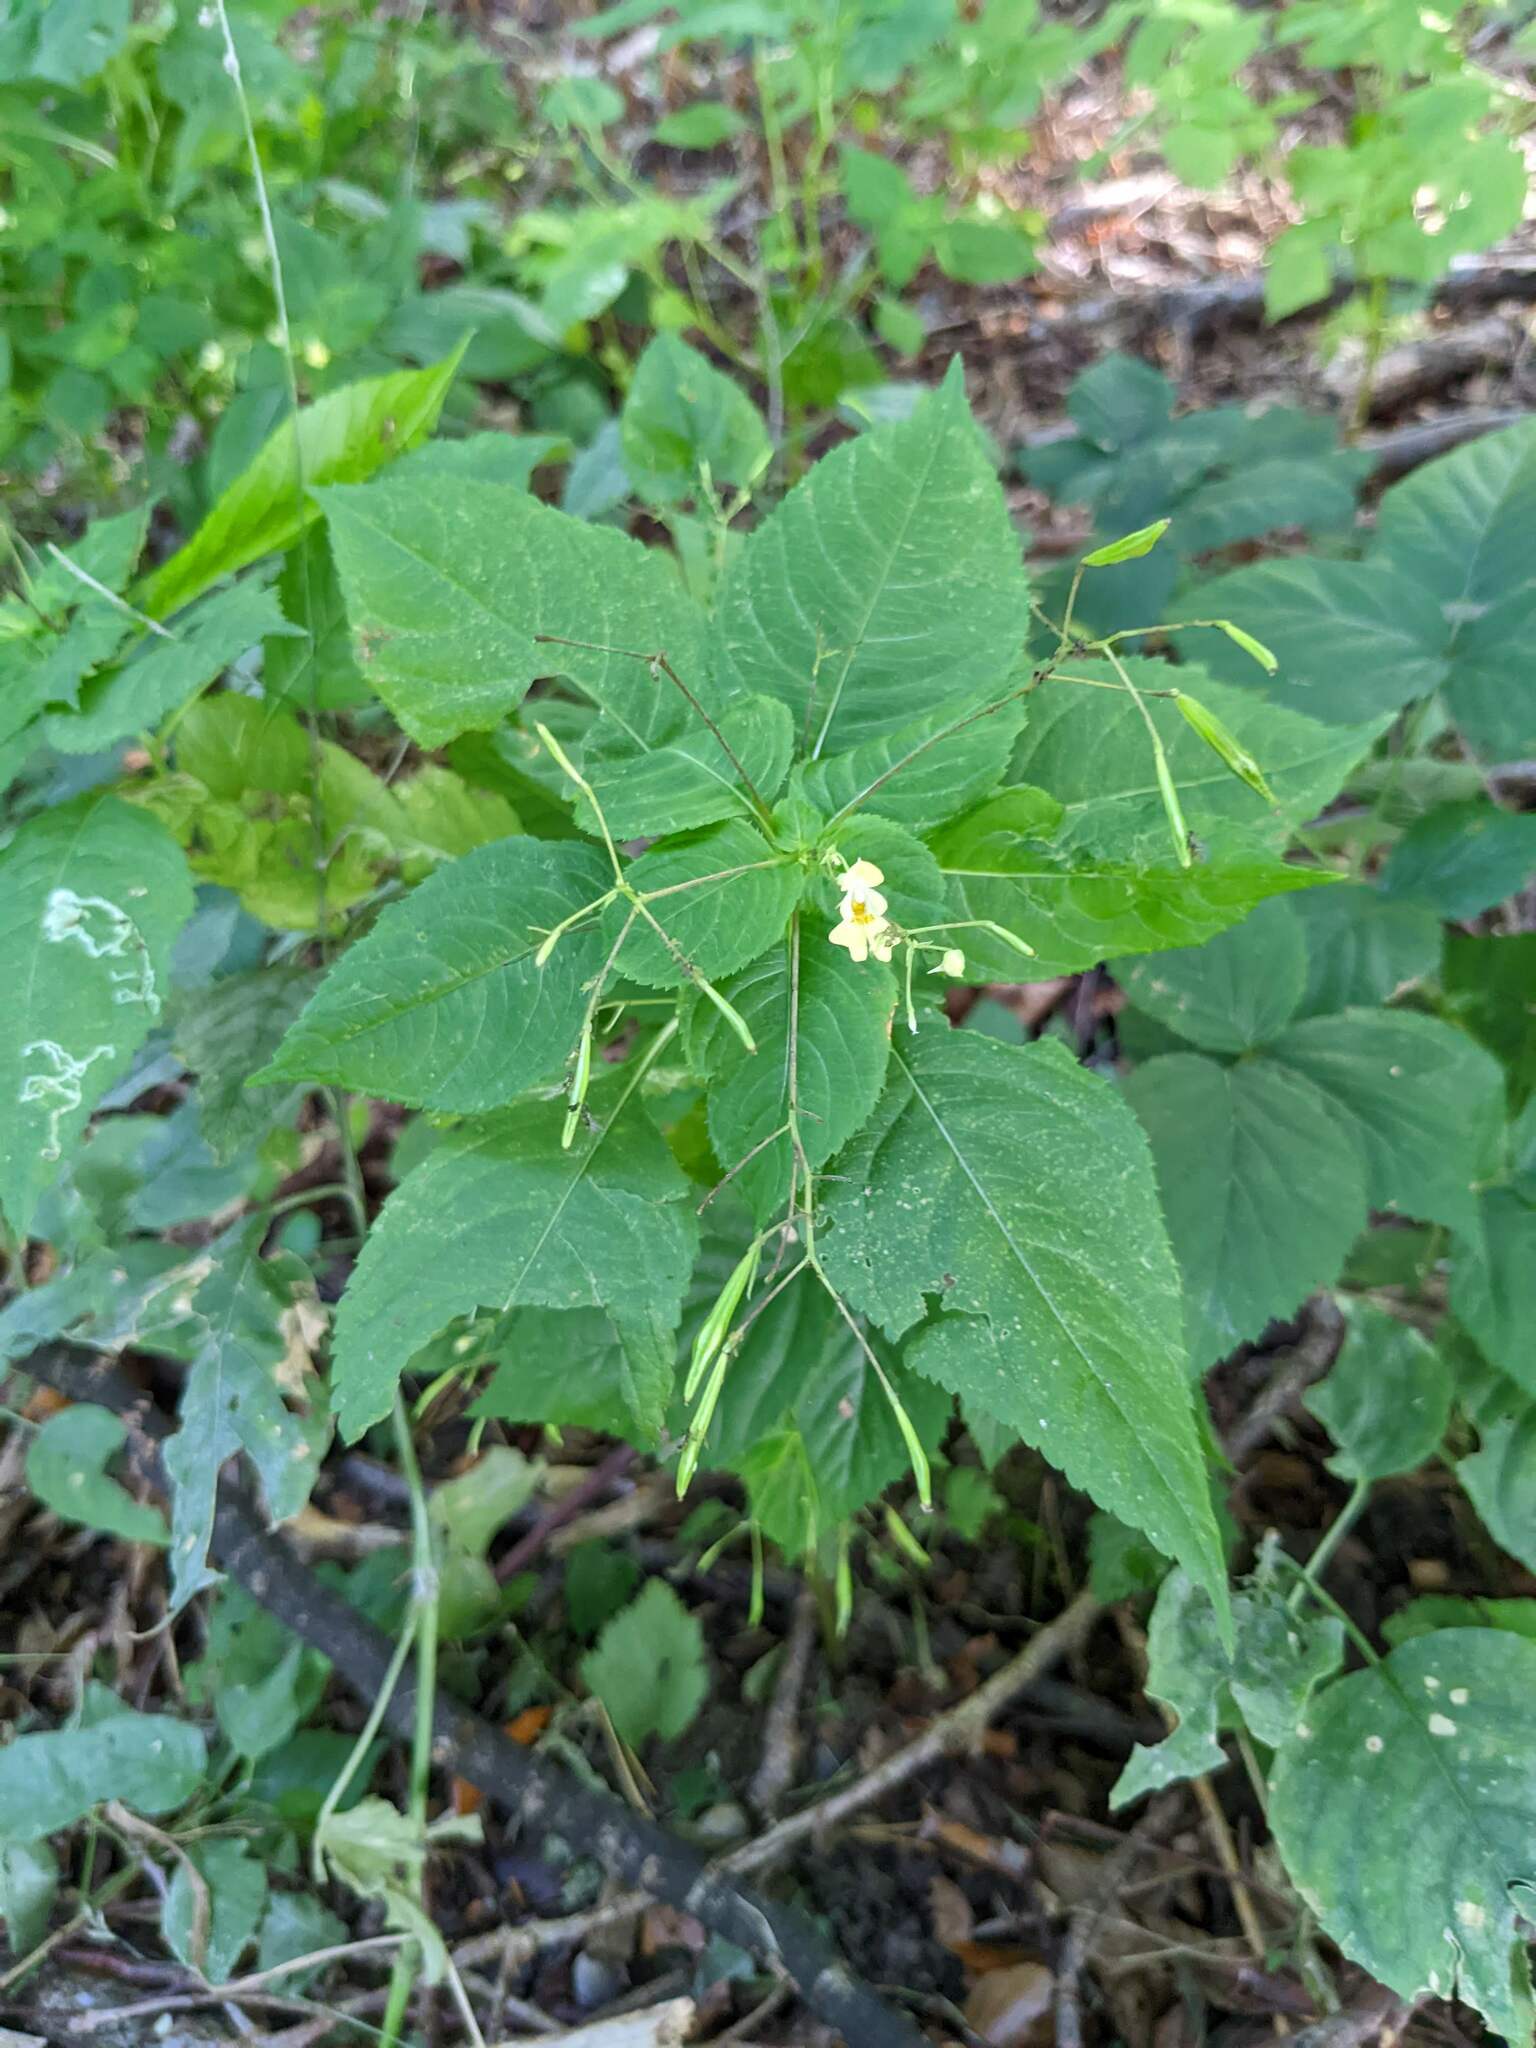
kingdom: Plantae
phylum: Tracheophyta
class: Magnoliopsida
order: Ericales
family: Balsaminaceae
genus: Impatiens
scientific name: Impatiens parviflora
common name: Small balsam
